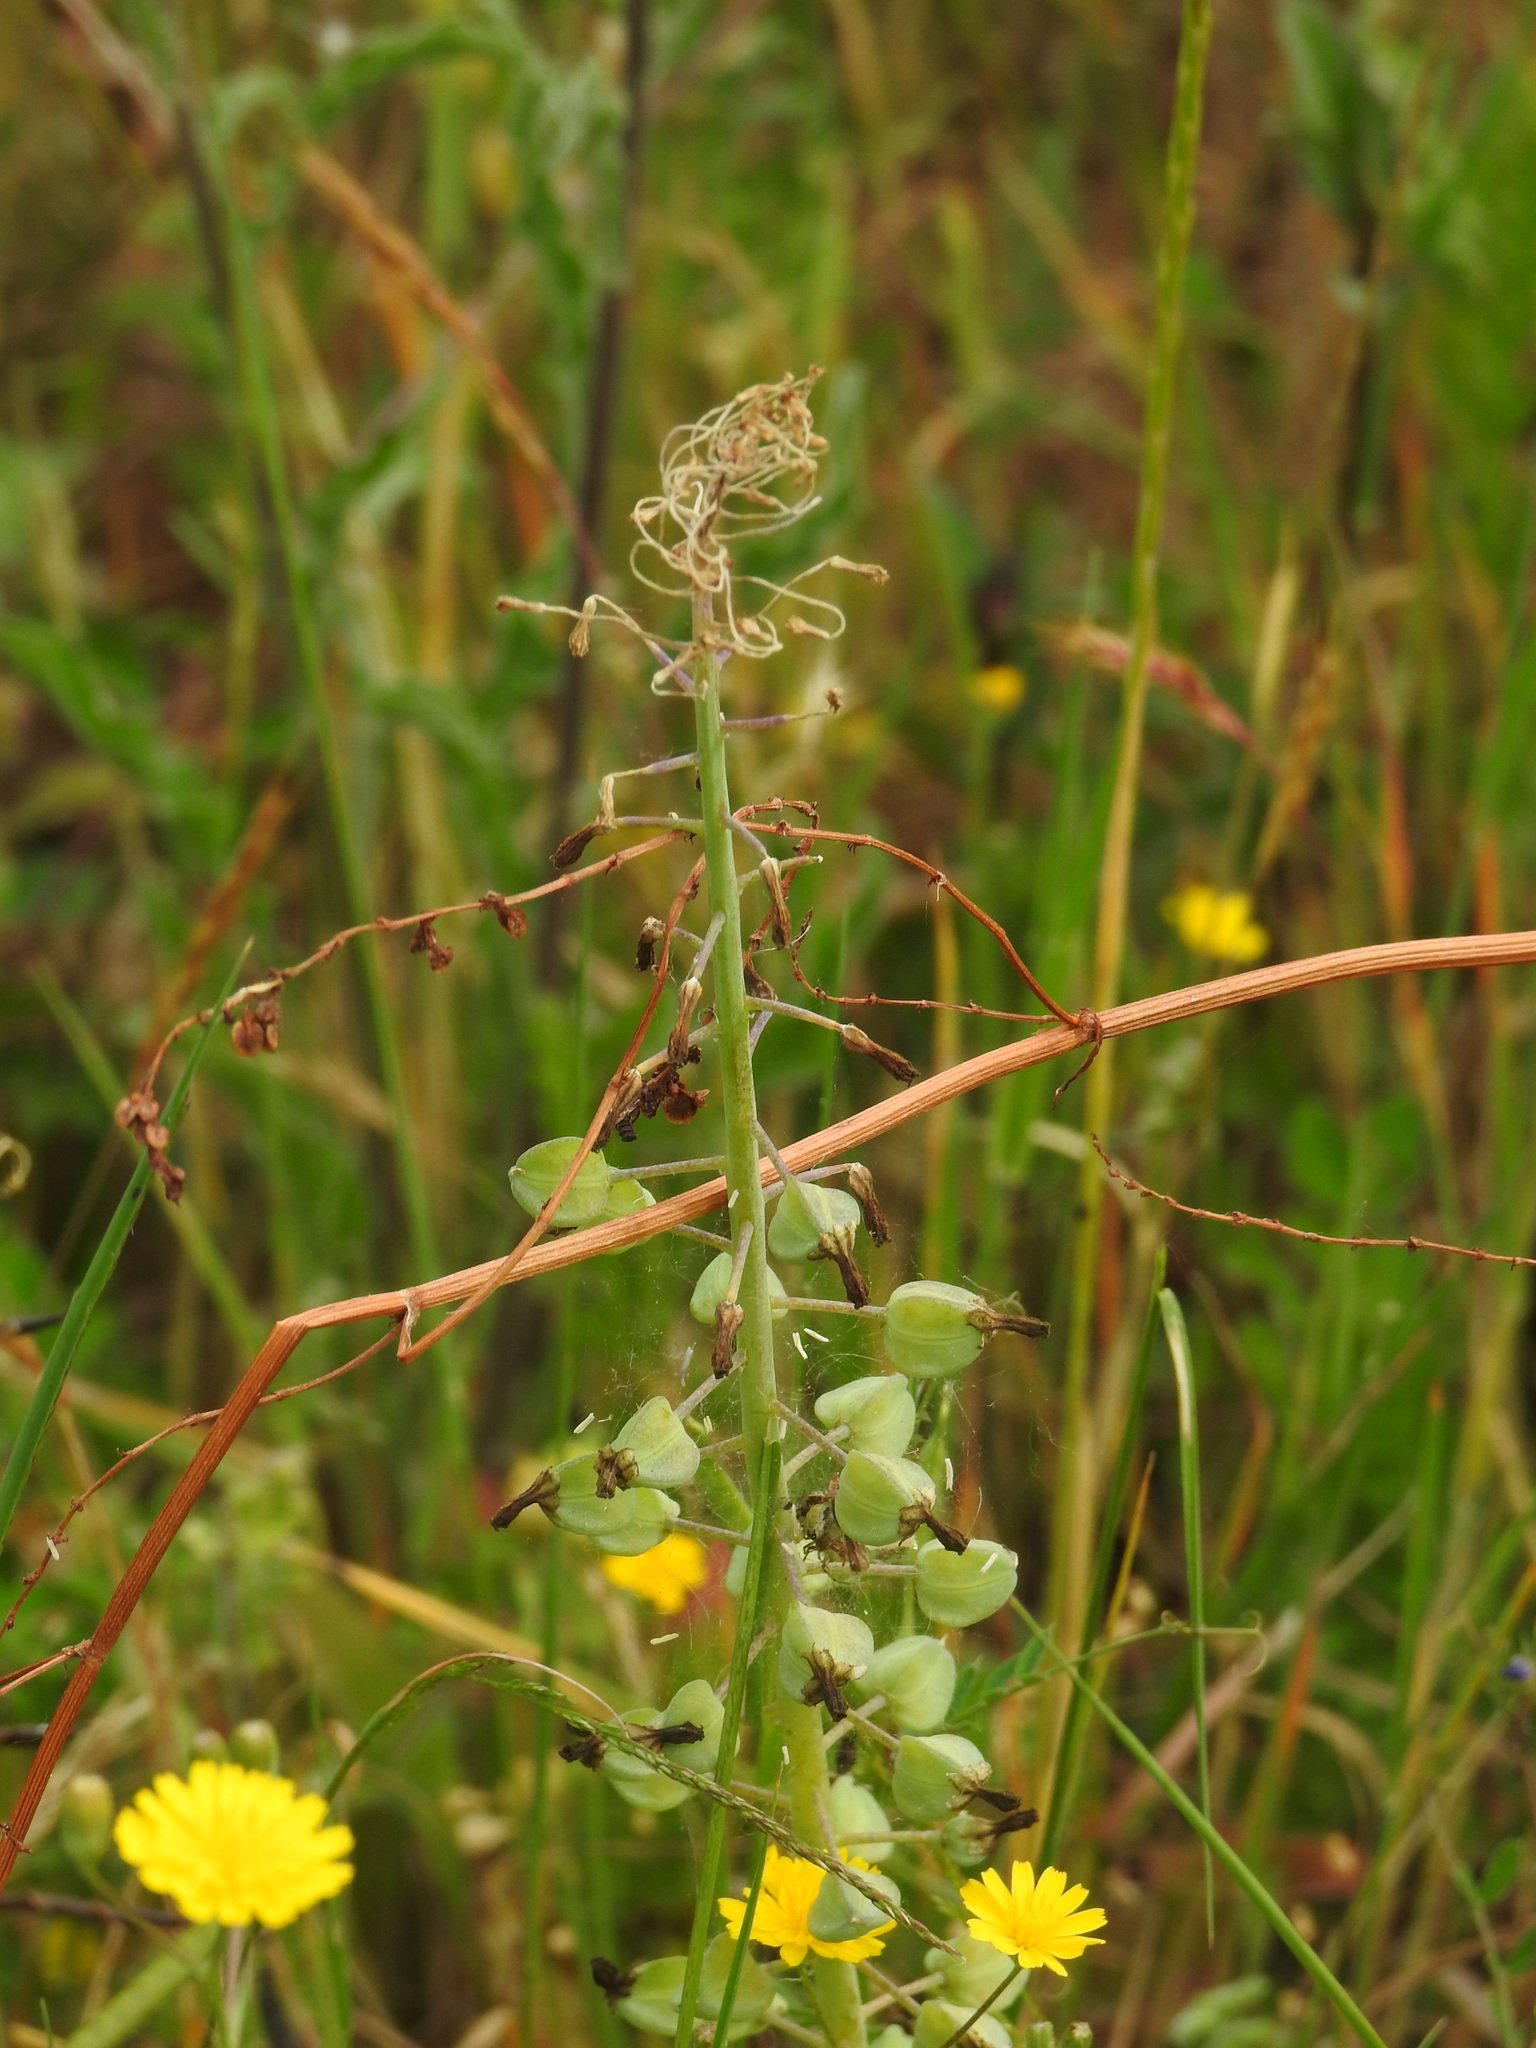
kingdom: Plantae
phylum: Tracheophyta
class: Liliopsida
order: Asparagales
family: Asparagaceae
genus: Muscari
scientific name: Muscari comosum
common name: Tassel hyacinth
